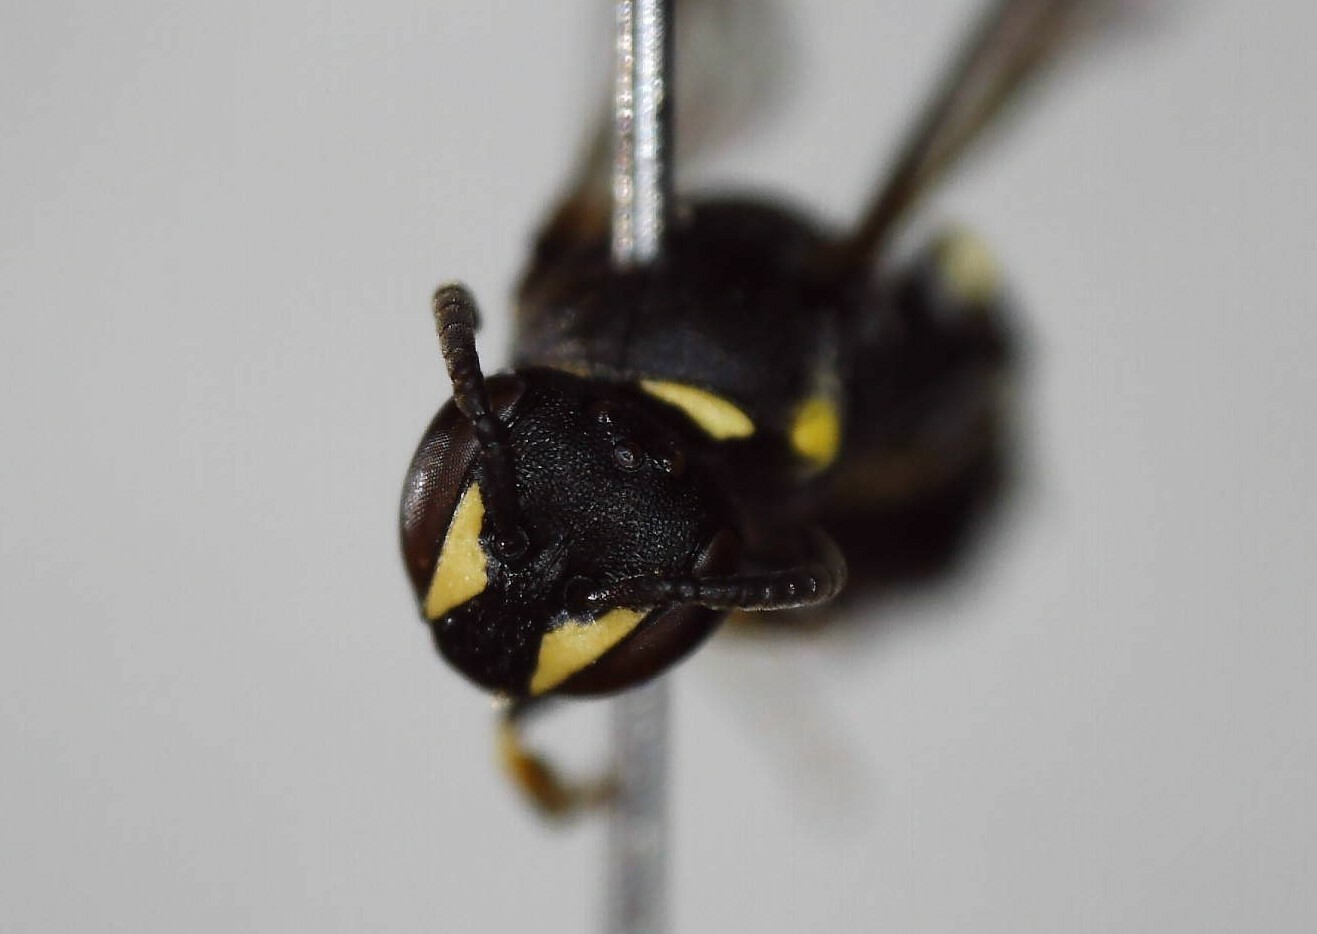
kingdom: Animalia
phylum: Arthropoda
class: Insecta
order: Hymenoptera
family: Colletidae
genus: Hylaeus
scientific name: Hylaeus modestus
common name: Yellow-faced bee
